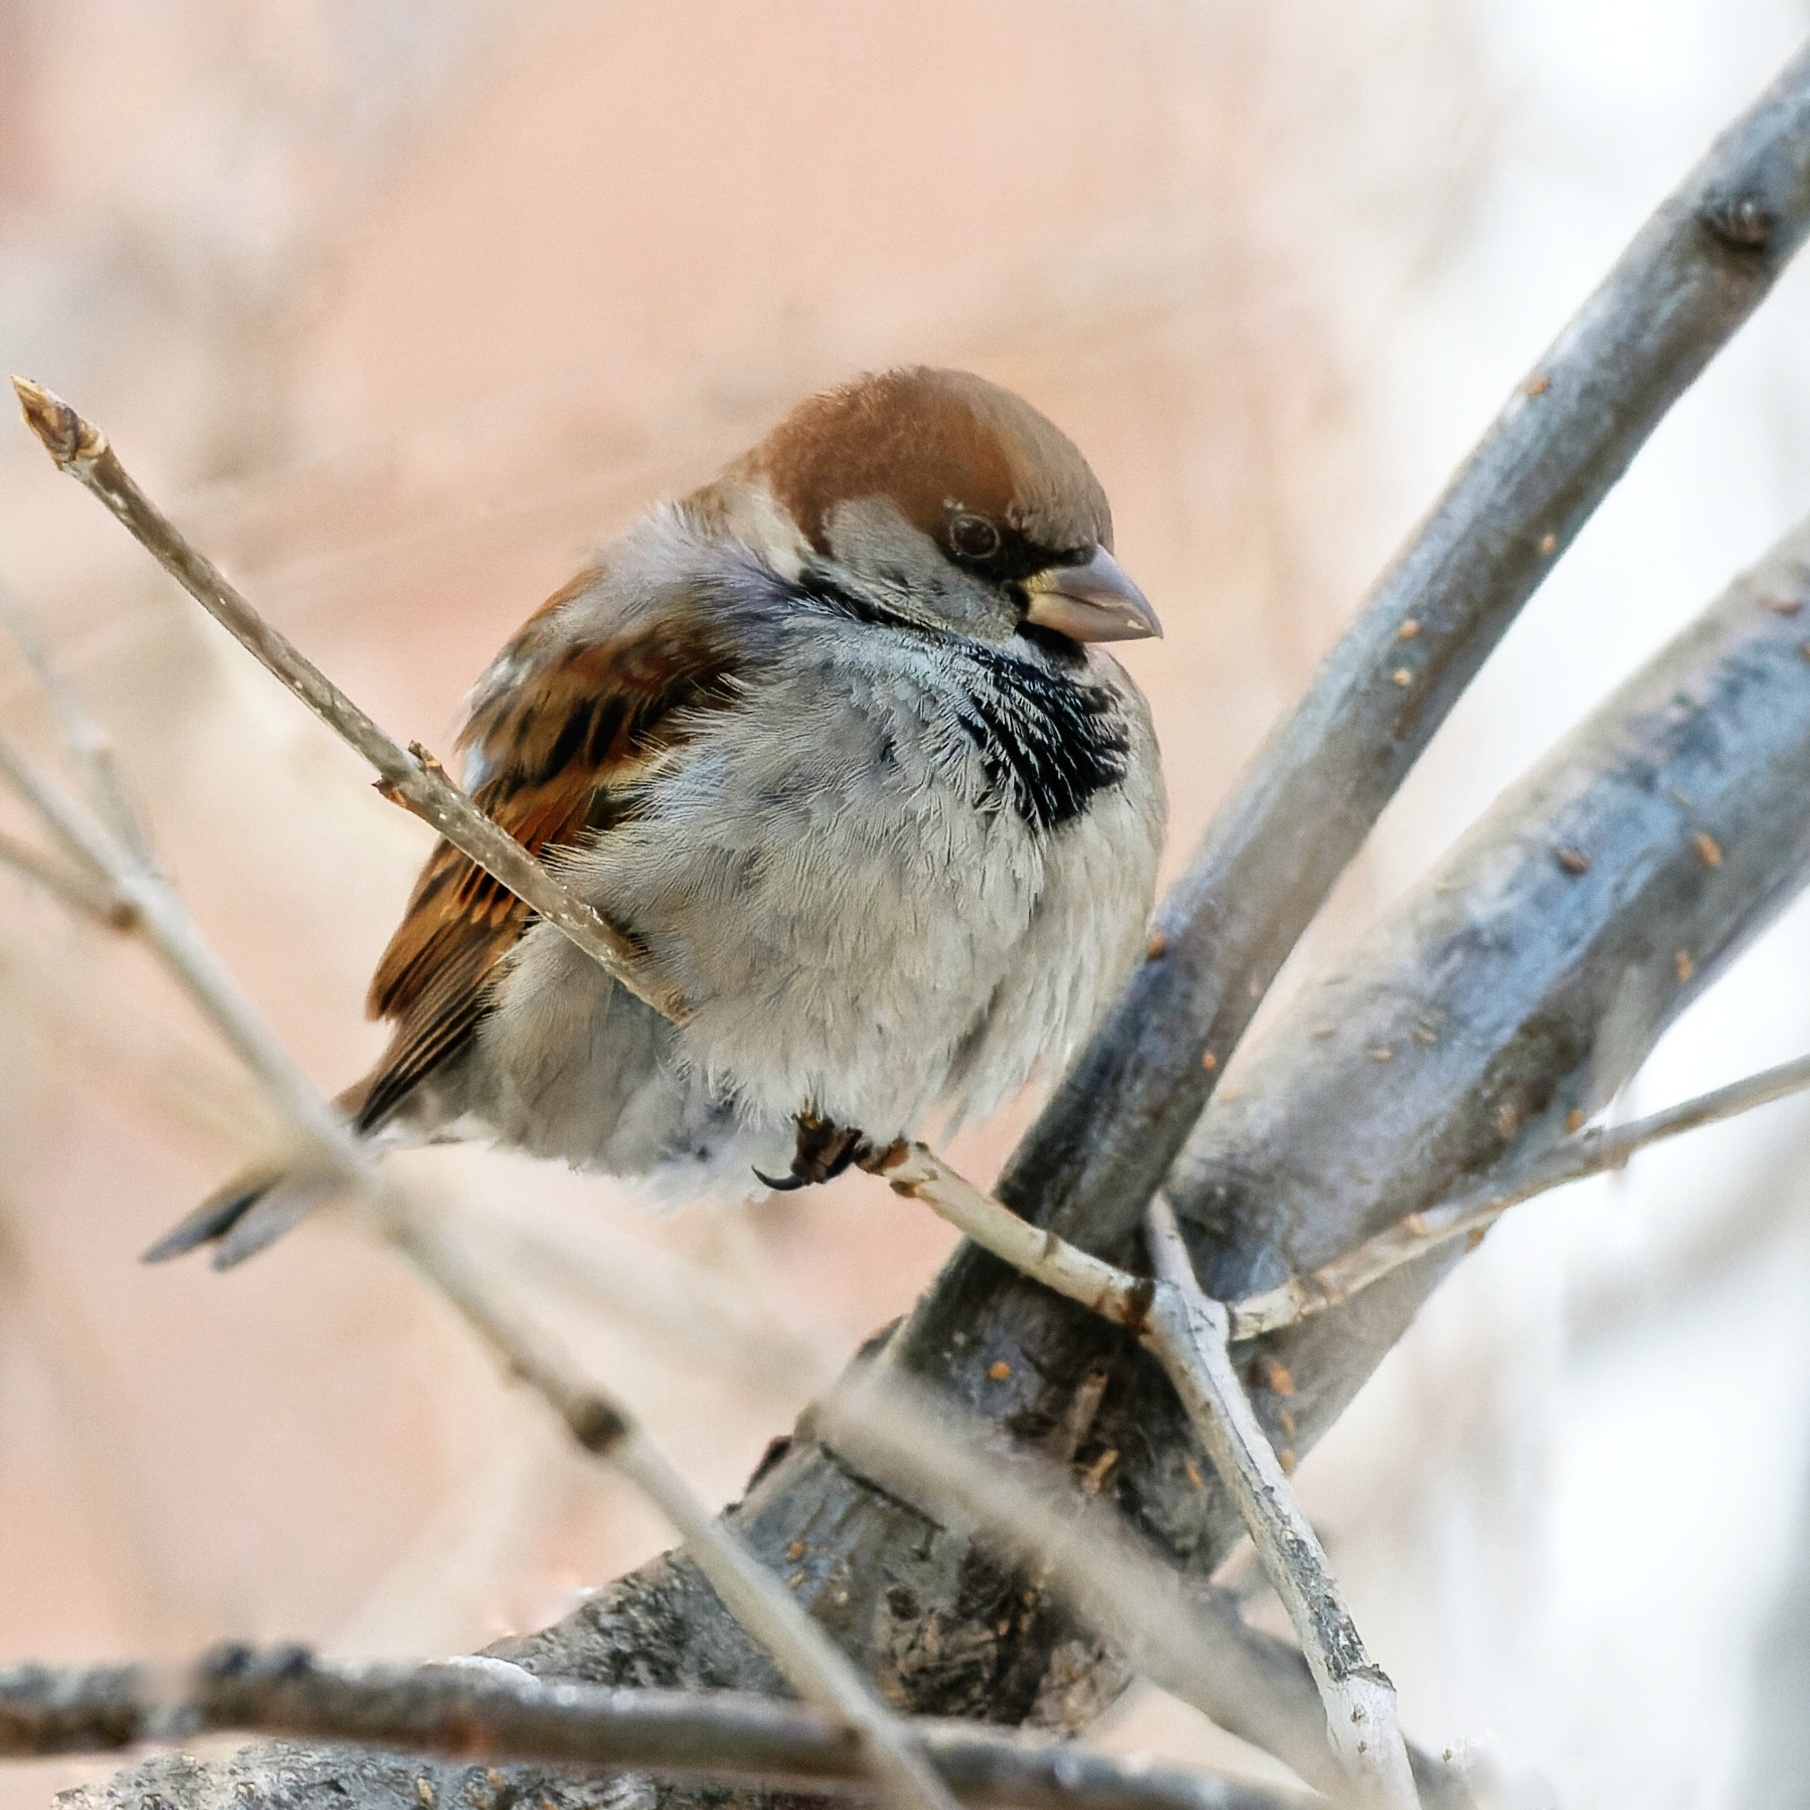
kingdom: Animalia
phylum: Chordata
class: Aves
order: Passeriformes
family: Passeridae
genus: Passer
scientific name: Passer domesticus
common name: House sparrow
